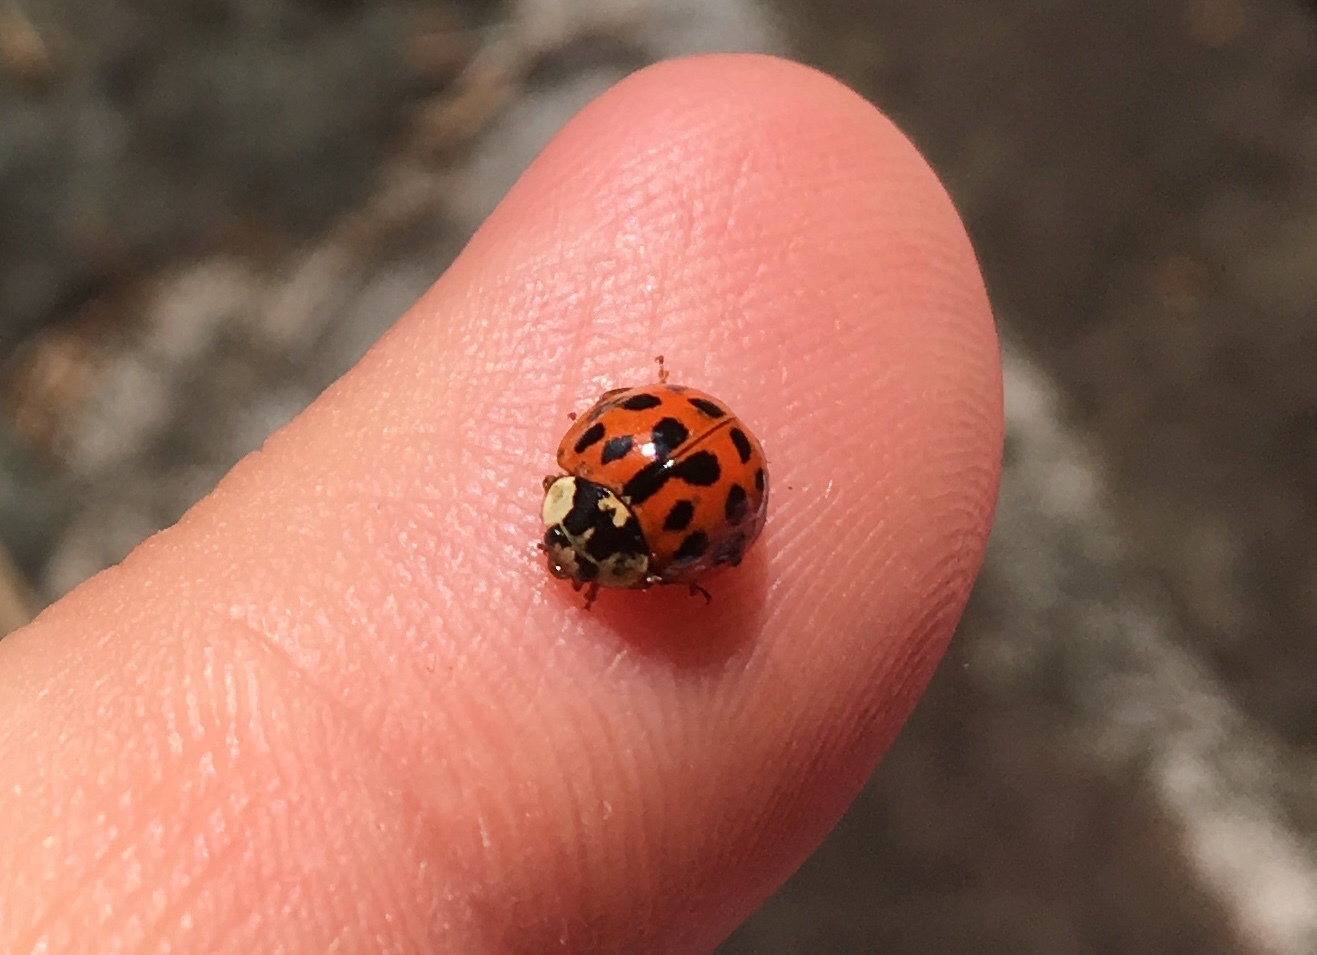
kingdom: Animalia
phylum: Arthropoda
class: Insecta
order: Coleoptera
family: Coccinellidae
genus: Harmonia
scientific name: Harmonia axyridis
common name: Harlequin ladybird
